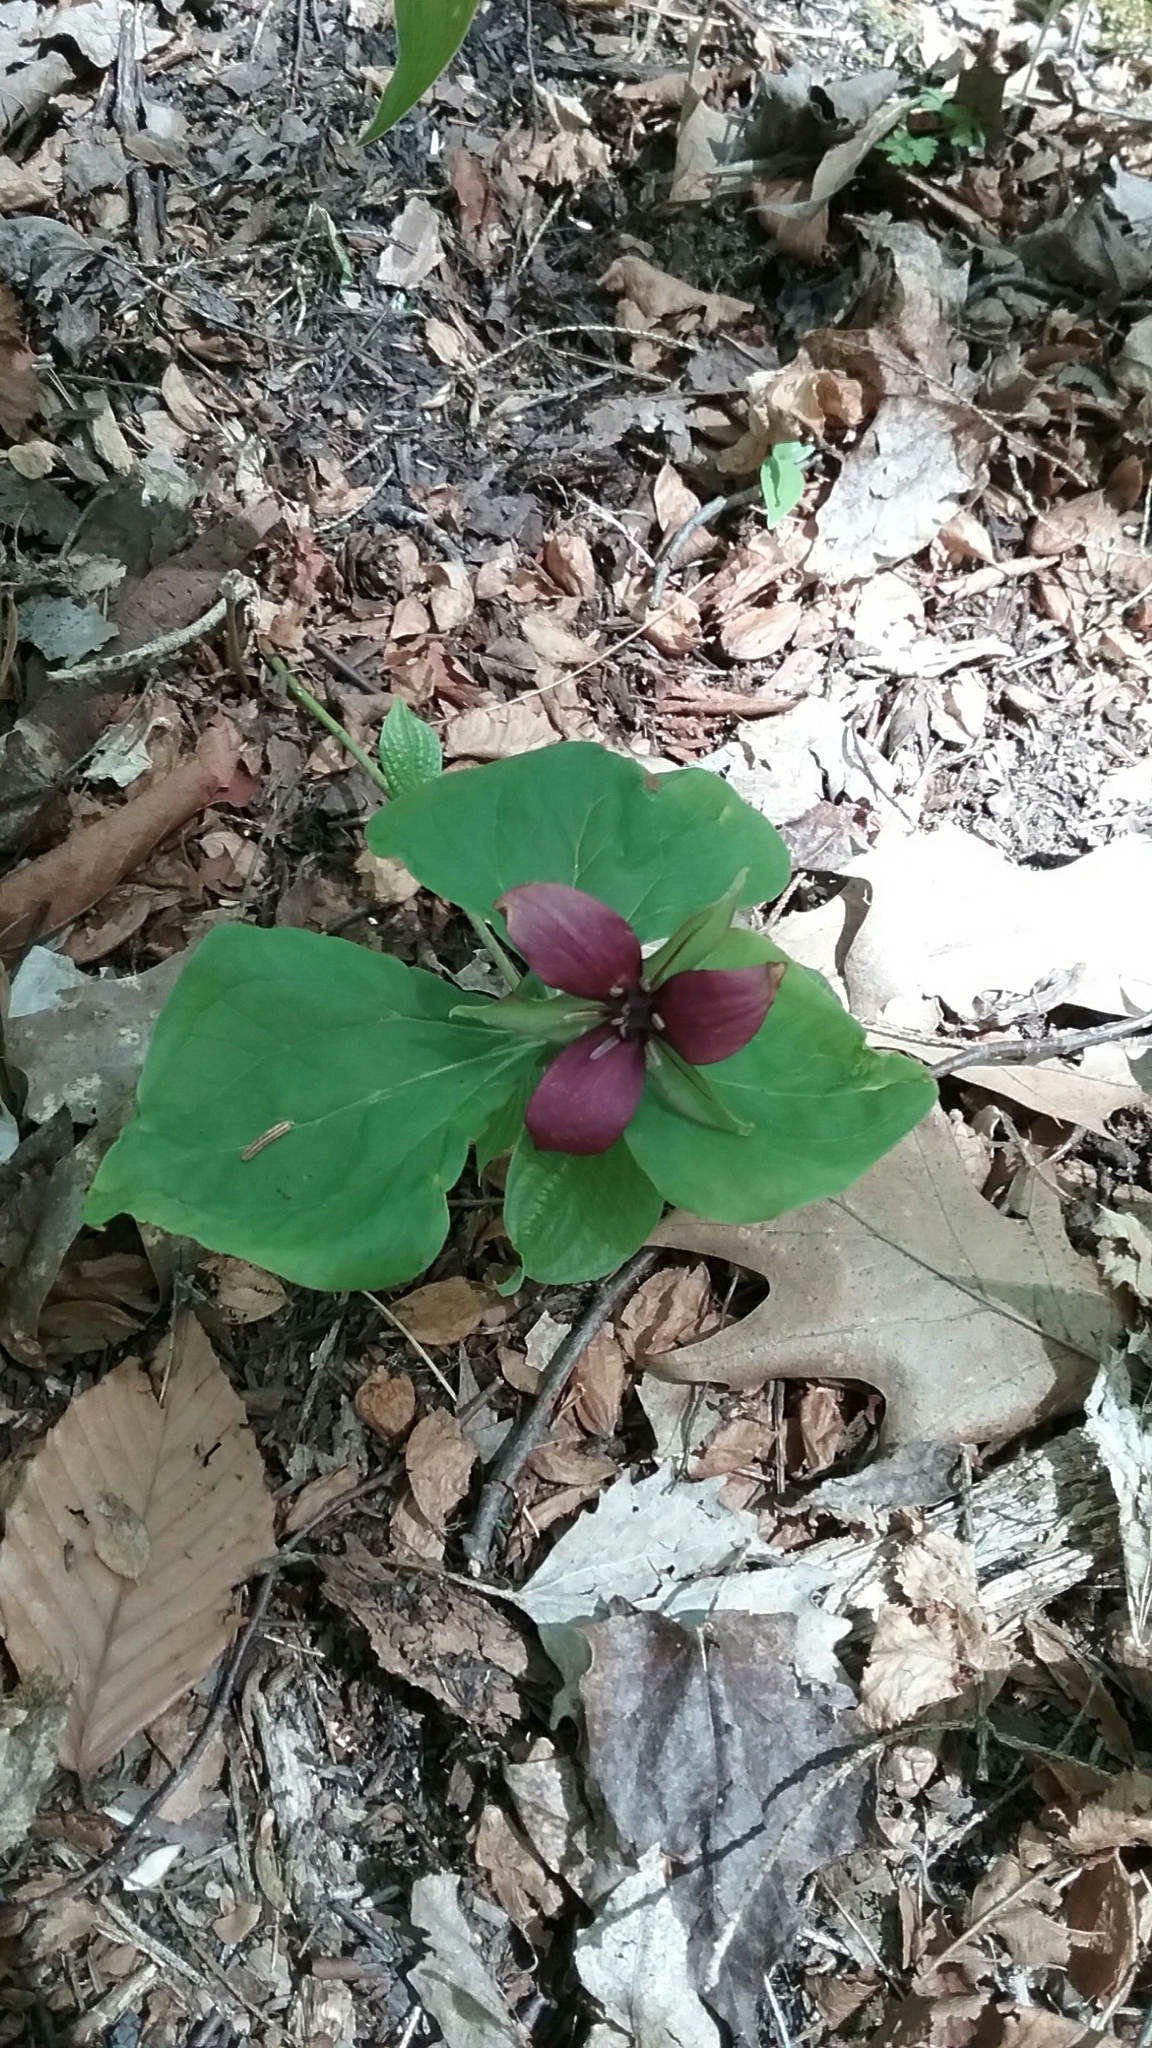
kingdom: Plantae
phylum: Tracheophyta
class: Liliopsida
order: Liliales
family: Melanthiaceae
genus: Trillium
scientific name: Trillium erectum
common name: Purple trillium
